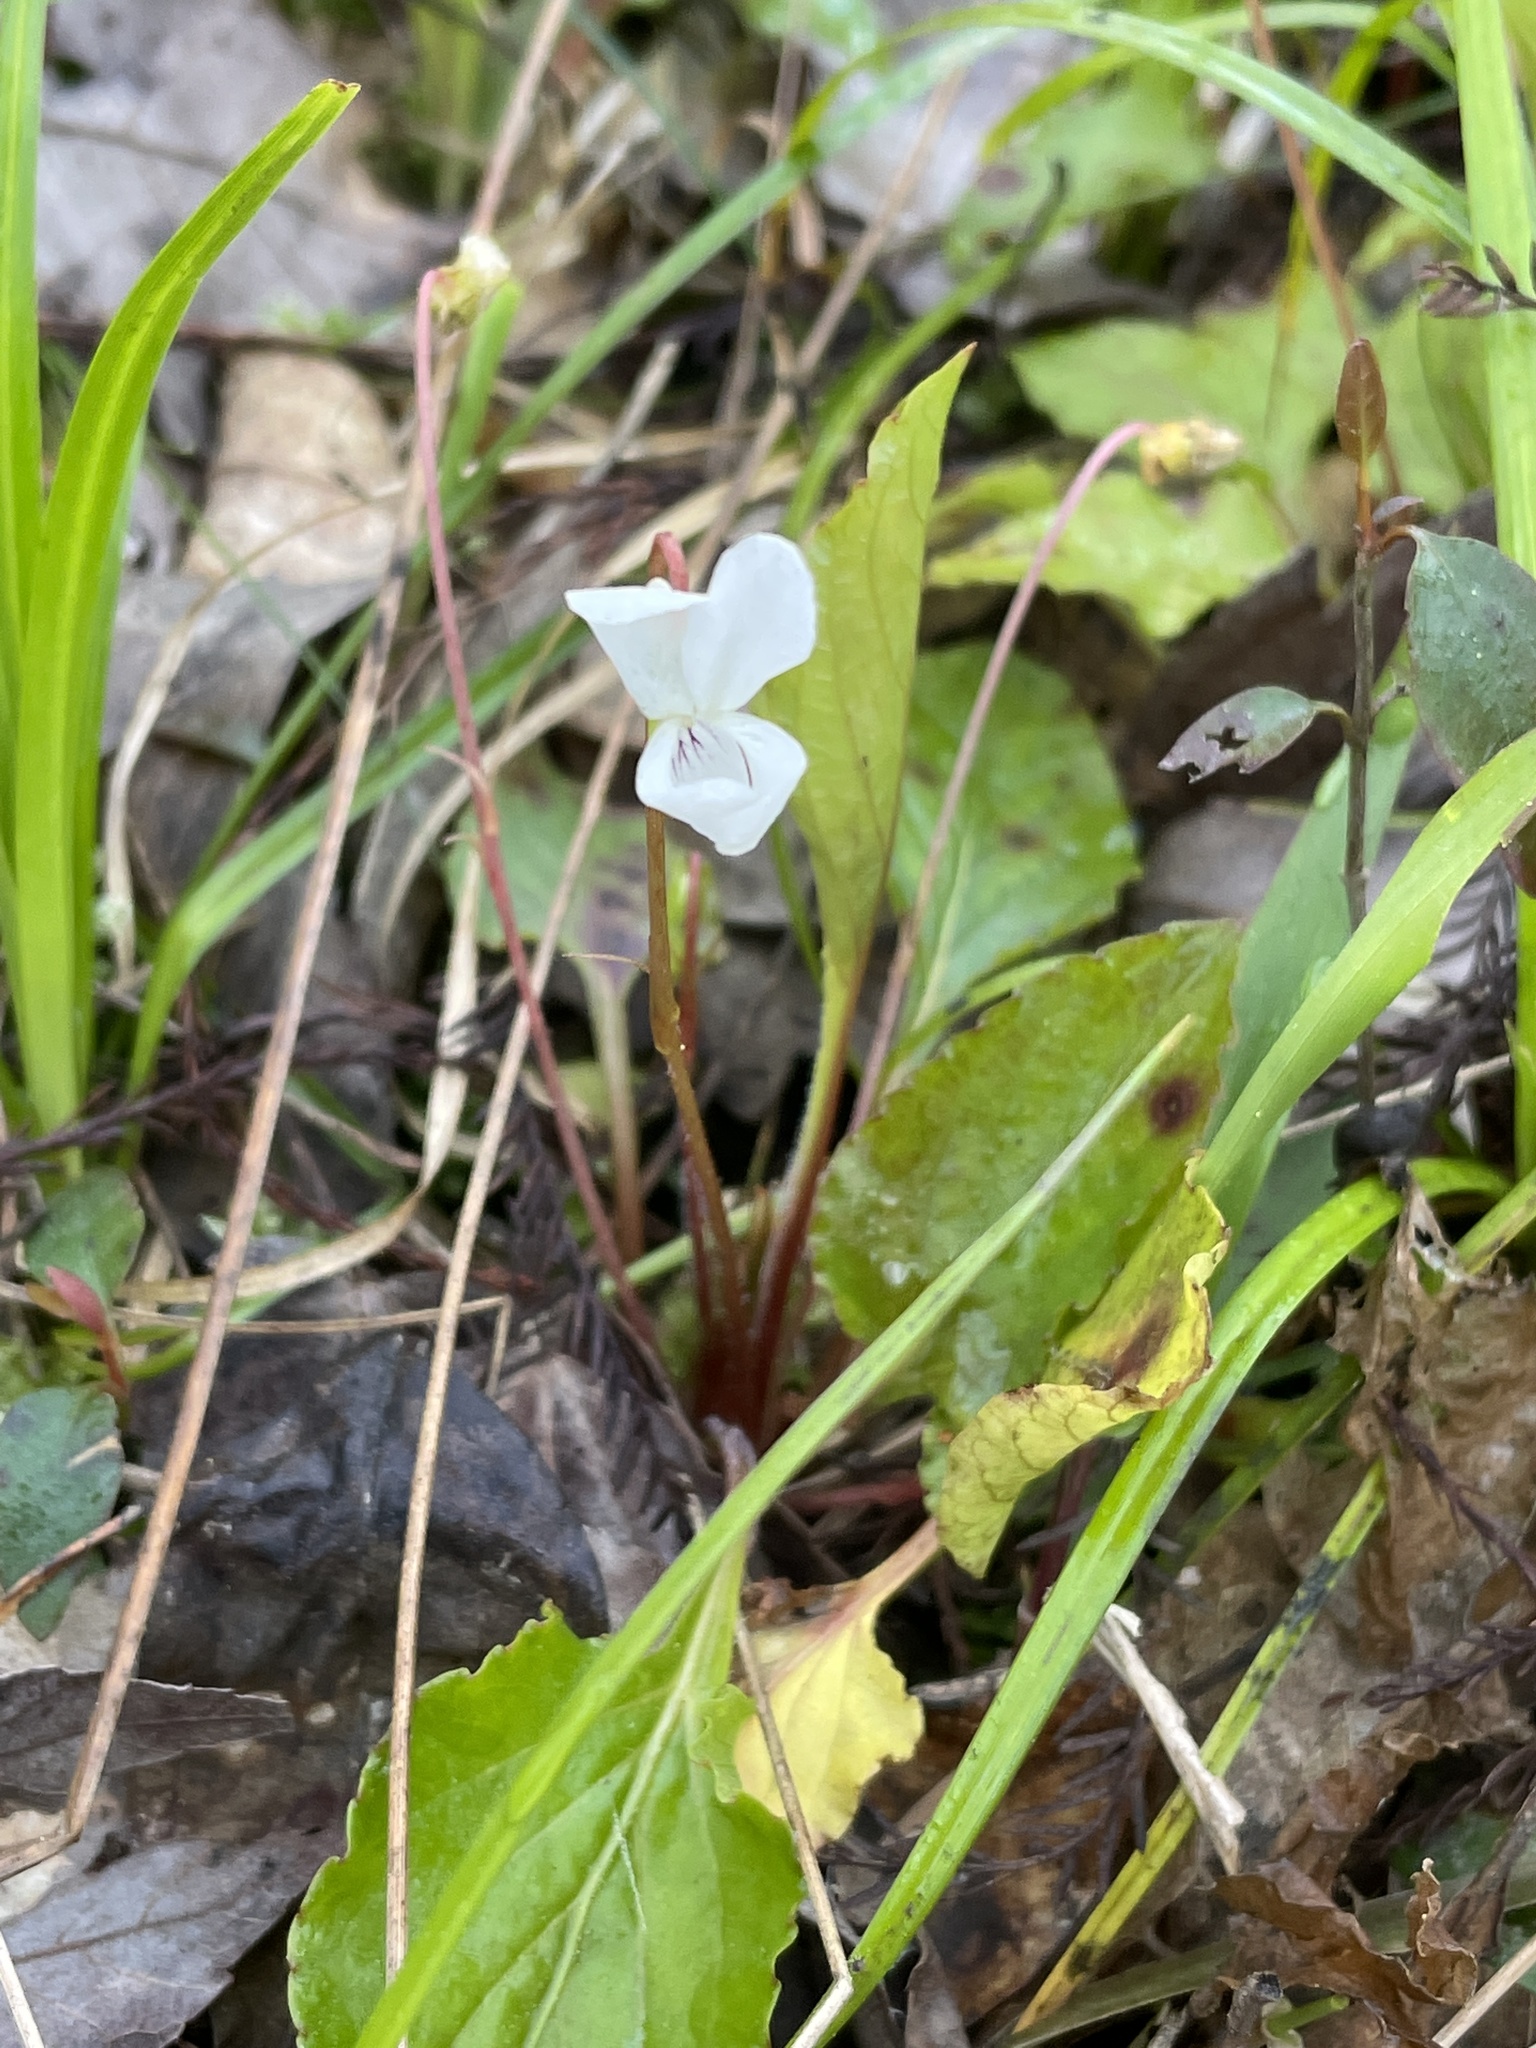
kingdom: Plantae
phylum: Tracheophyta
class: Magnoliopsida
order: Malpighiales
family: Violaceae
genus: Viola
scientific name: Viola primulifolia
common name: Primrose-leaf violet
